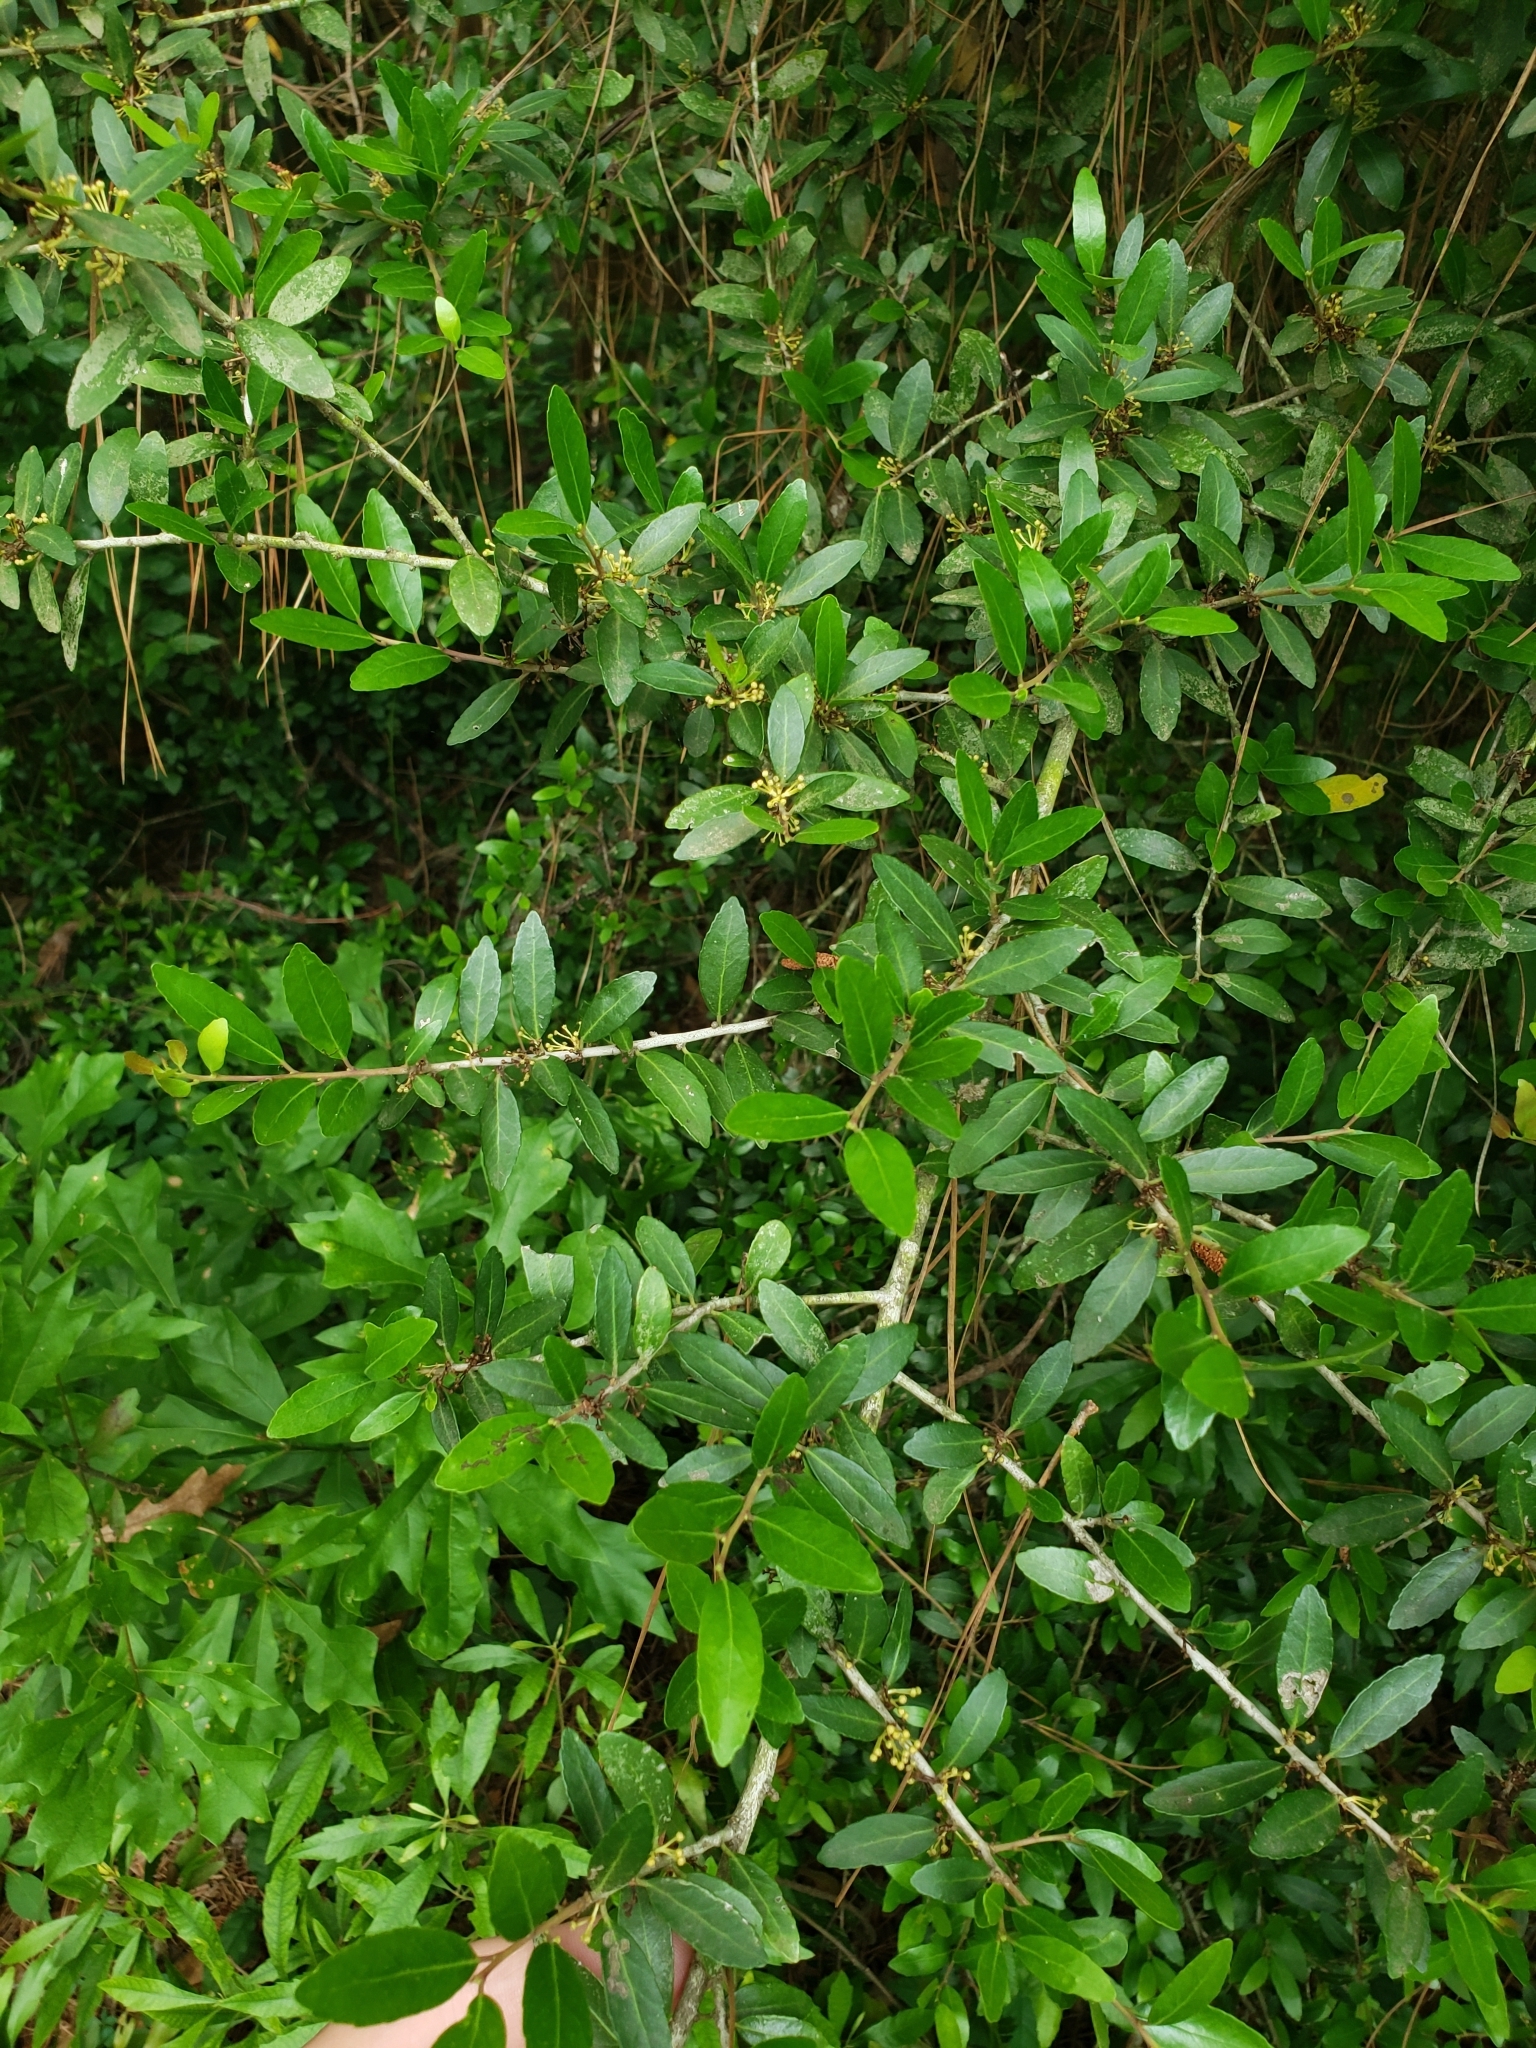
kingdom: Plantae
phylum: Tracheophyta
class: Magnoliopsida
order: Aquifoliales
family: Aquifoliaceae
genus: Ilex
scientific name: Ilex vomitoria
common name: Yaupon holly
